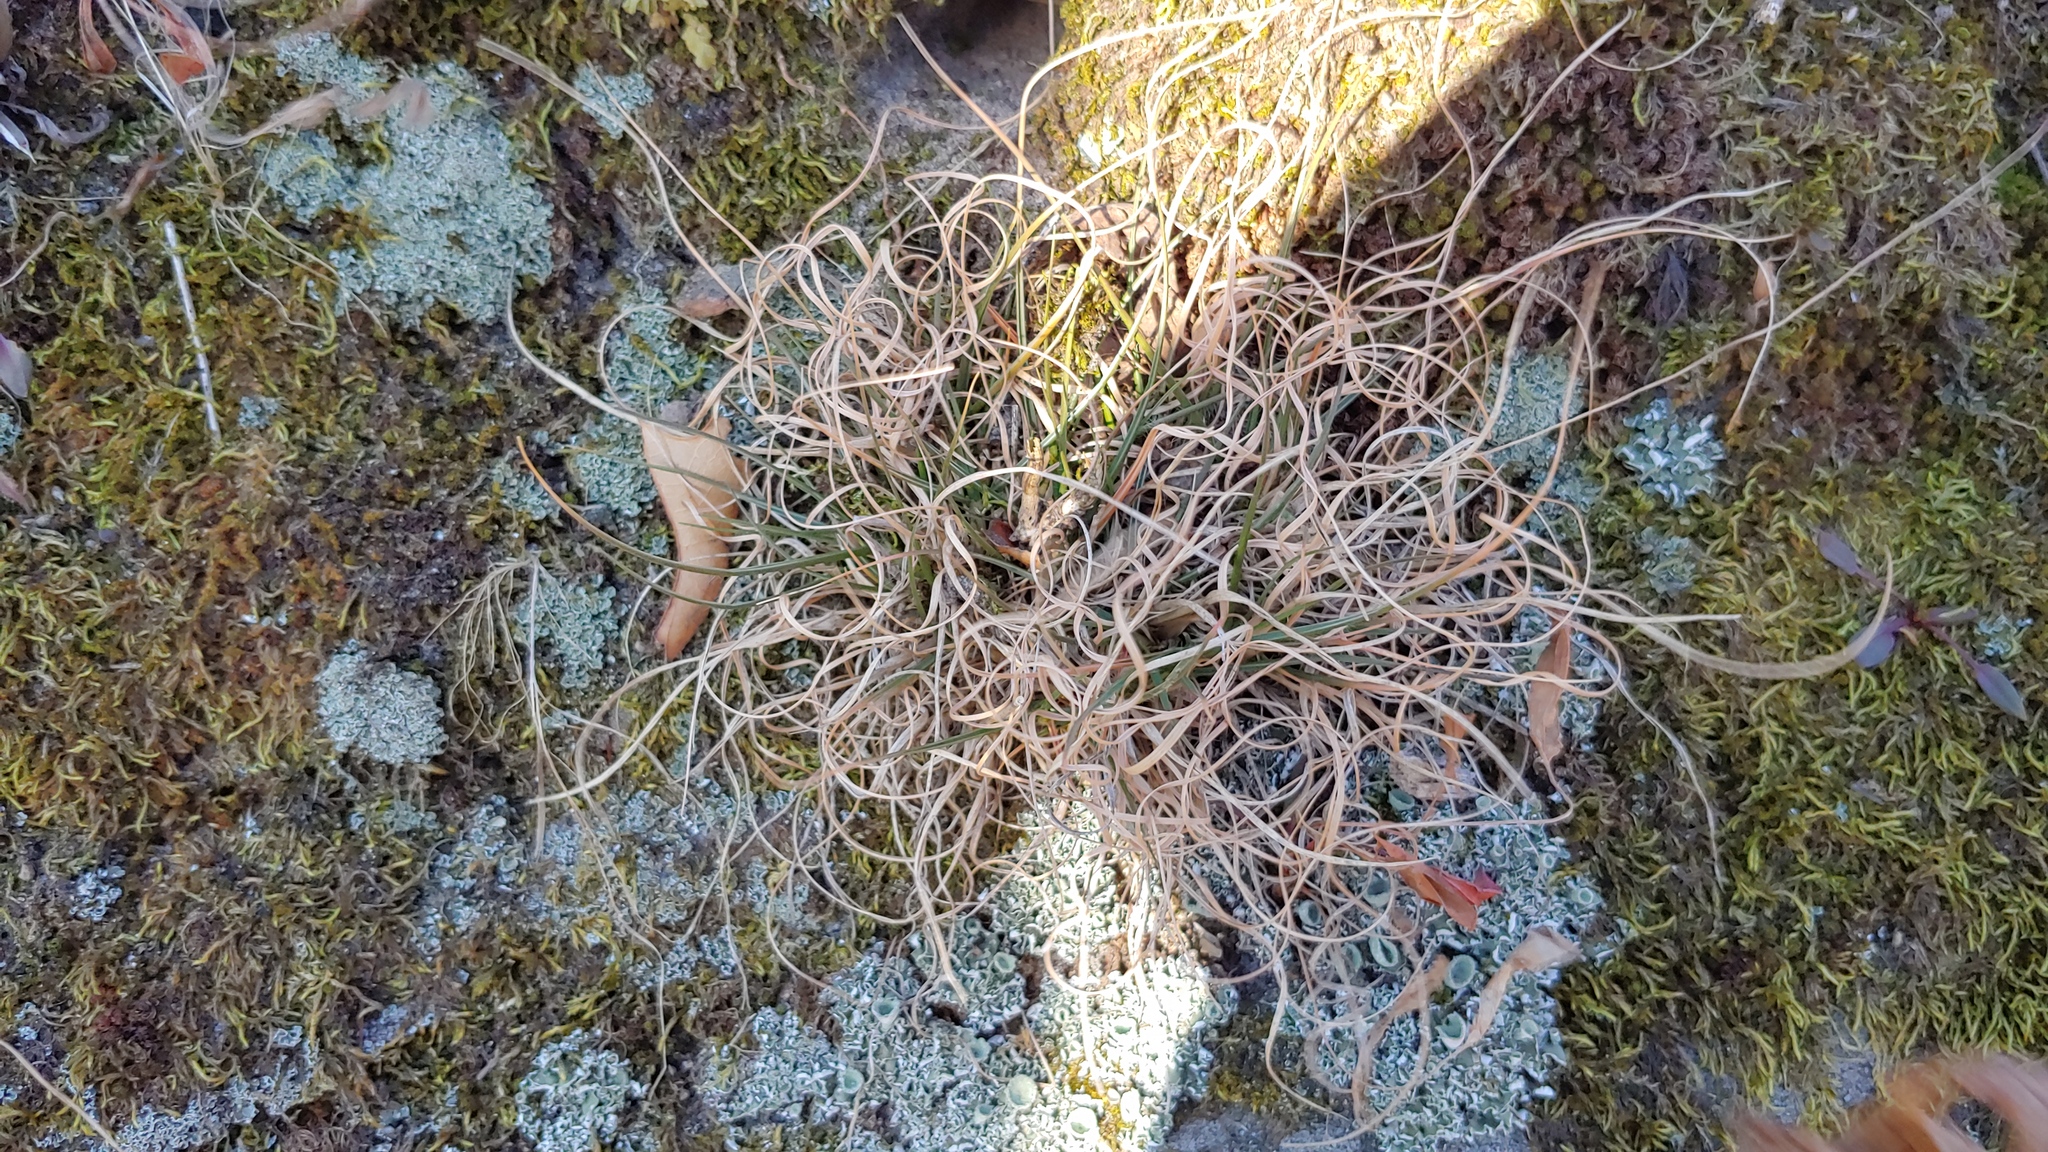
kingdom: Plantae
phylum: Tracheophyta
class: Liliopsida
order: Poales
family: Poaceae
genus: Danthonia
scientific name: Danthonia spicata
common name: Common wild oatgrass
